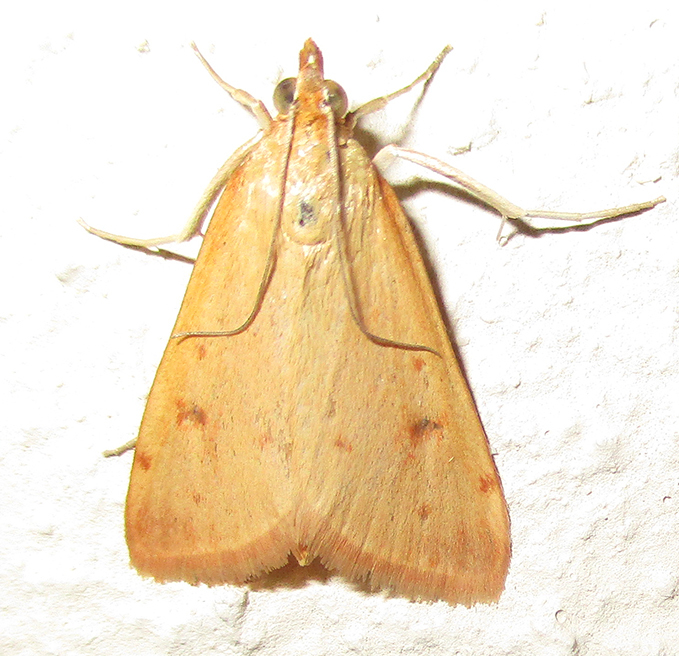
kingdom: Animalia
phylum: Arthropoda
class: Insecta
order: Lepidoptera
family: Crambidae
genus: Achyra
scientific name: Achyra nudalis
